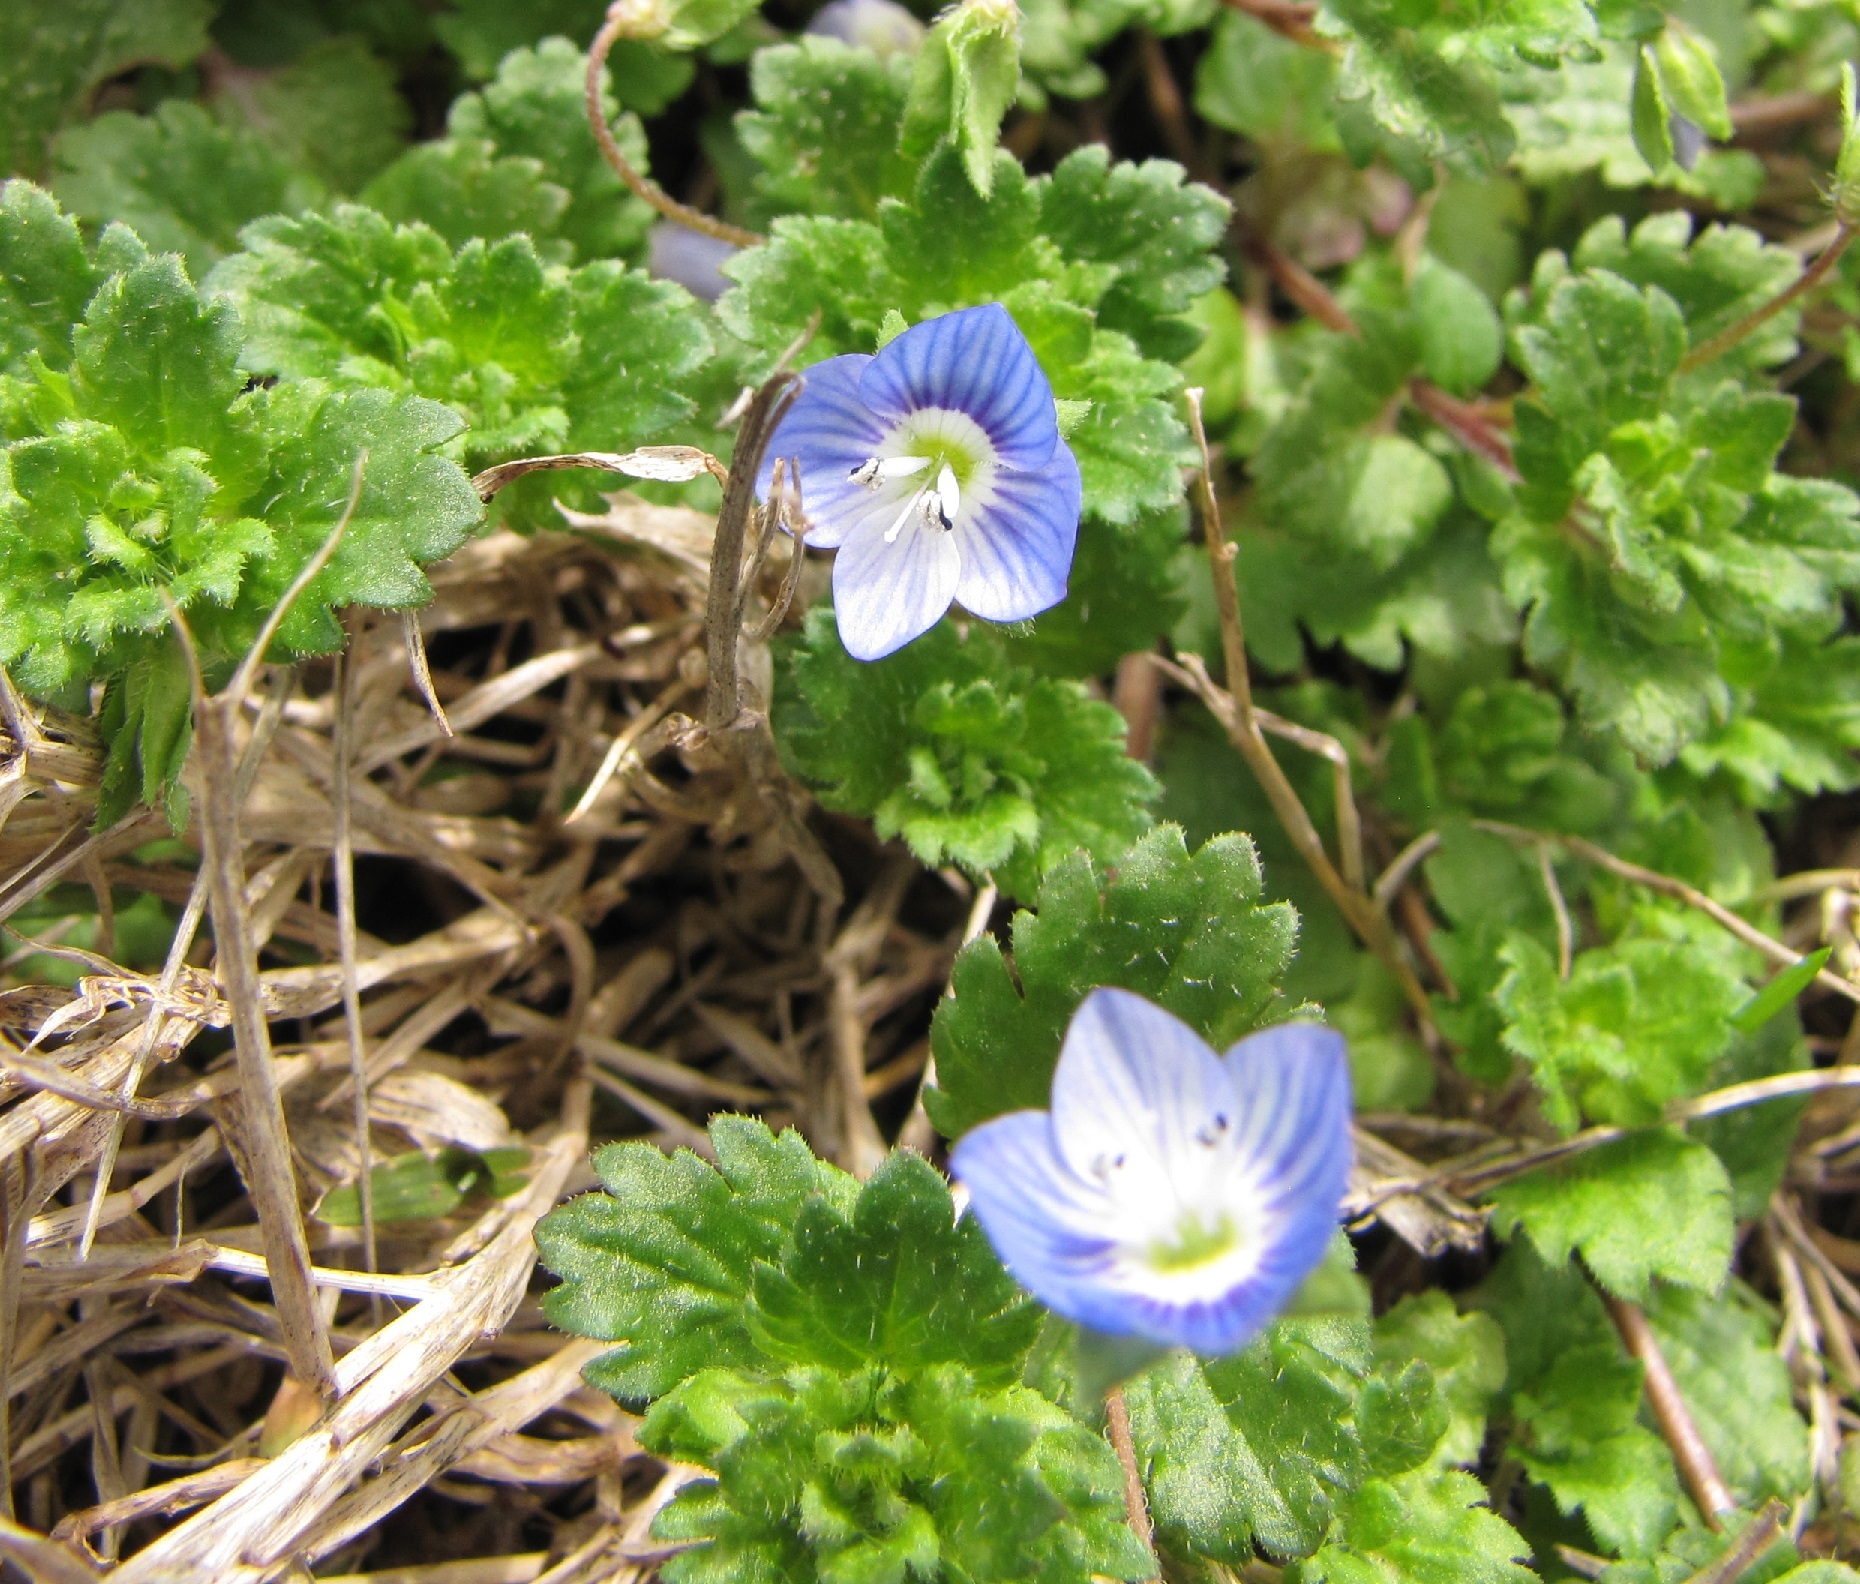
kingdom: Plantae
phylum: Tracheophyta
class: Magnoliopsida
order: Lamiales
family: Plantaginaceae
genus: Veronica
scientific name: Veronica persica
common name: Common field-speedwell
